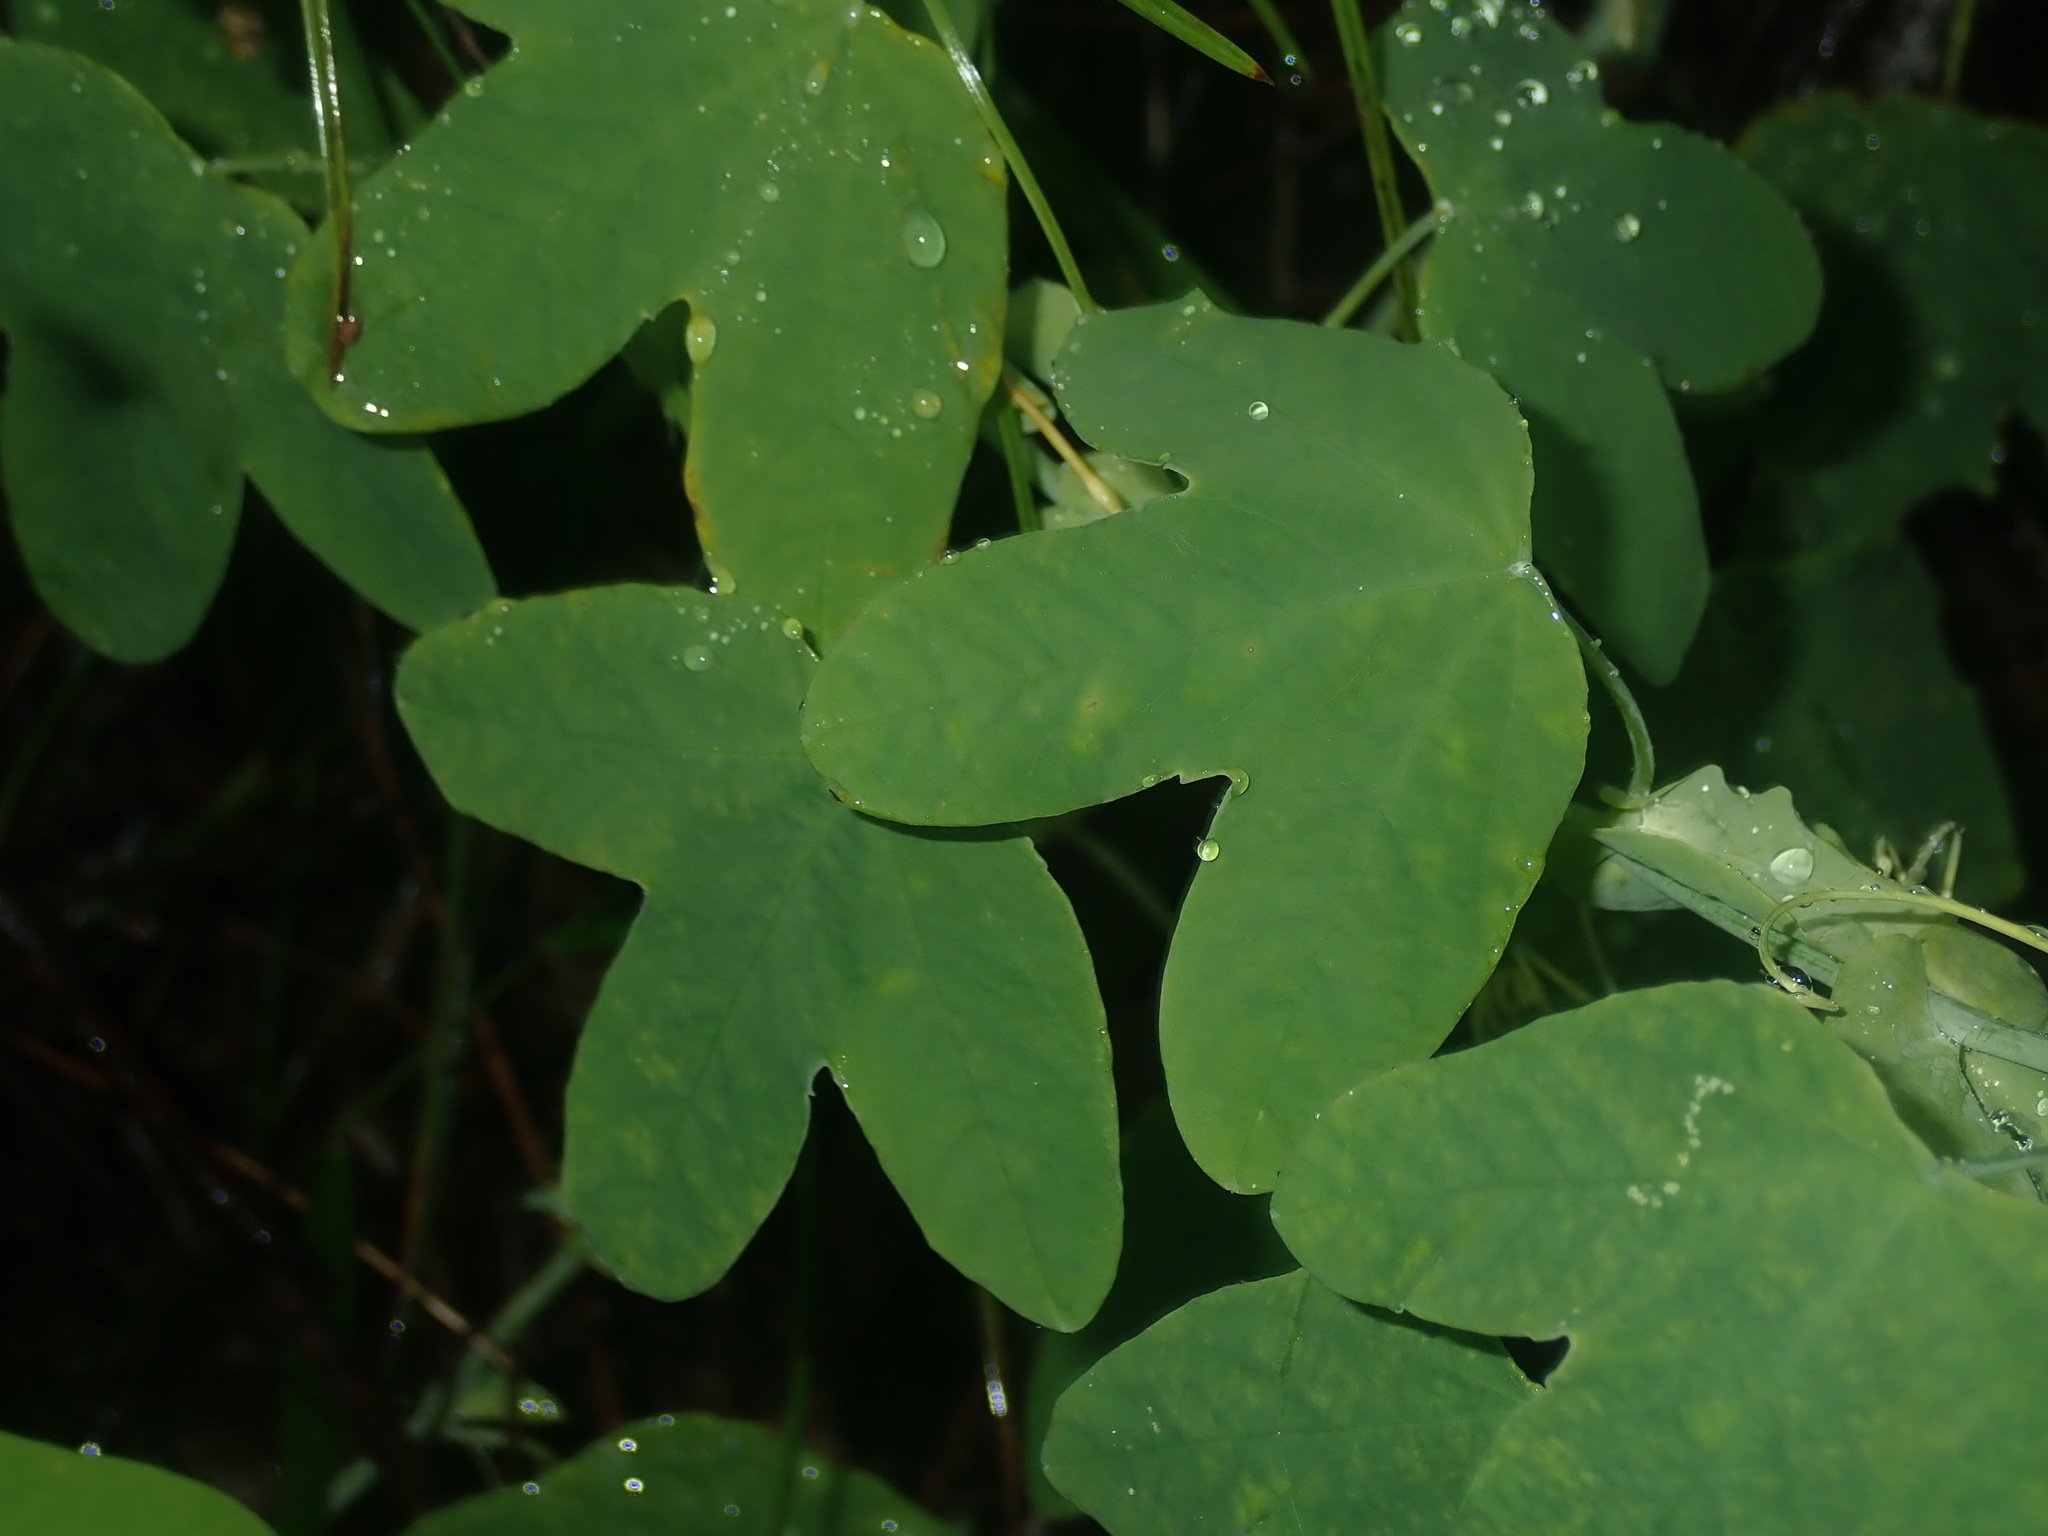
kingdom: Plantae
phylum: Tracheophyta
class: Magnoliopsida
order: Malpighiales
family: Passifloraceae
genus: Passiflora
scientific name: Passiflora subpeltata
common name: White passionflower
